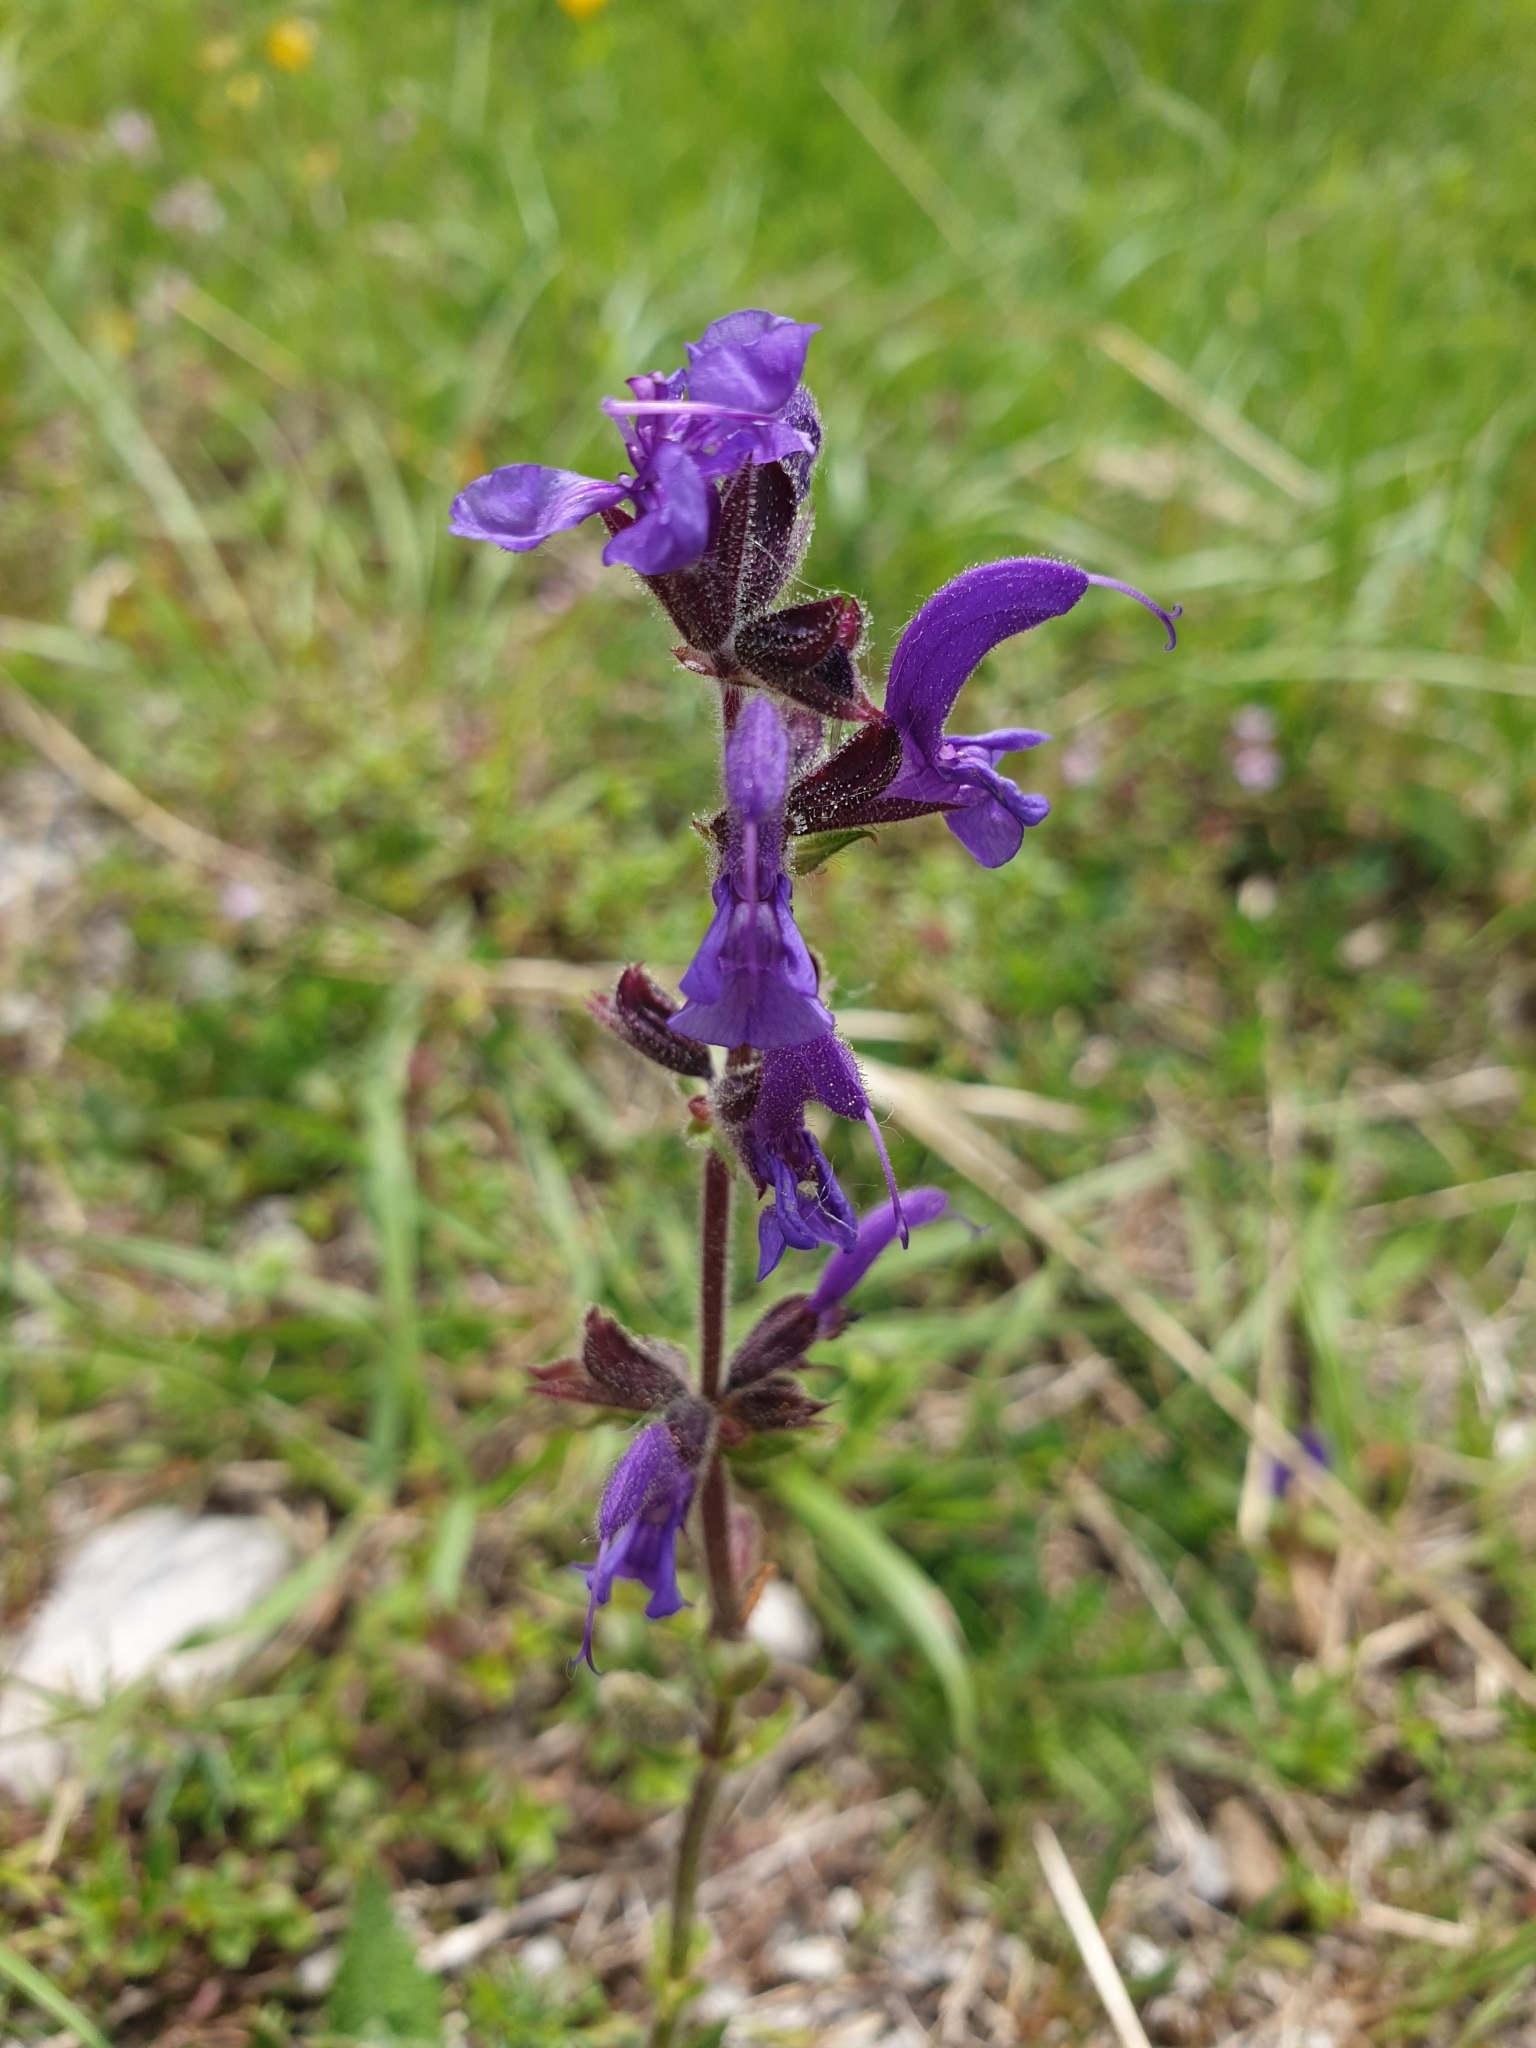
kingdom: Plantae
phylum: Tracheophyta
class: Magnoliopsida
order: Lamiales
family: Lamiaceae
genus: Salvia
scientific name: Salvia pratensis
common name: Meadow sage
